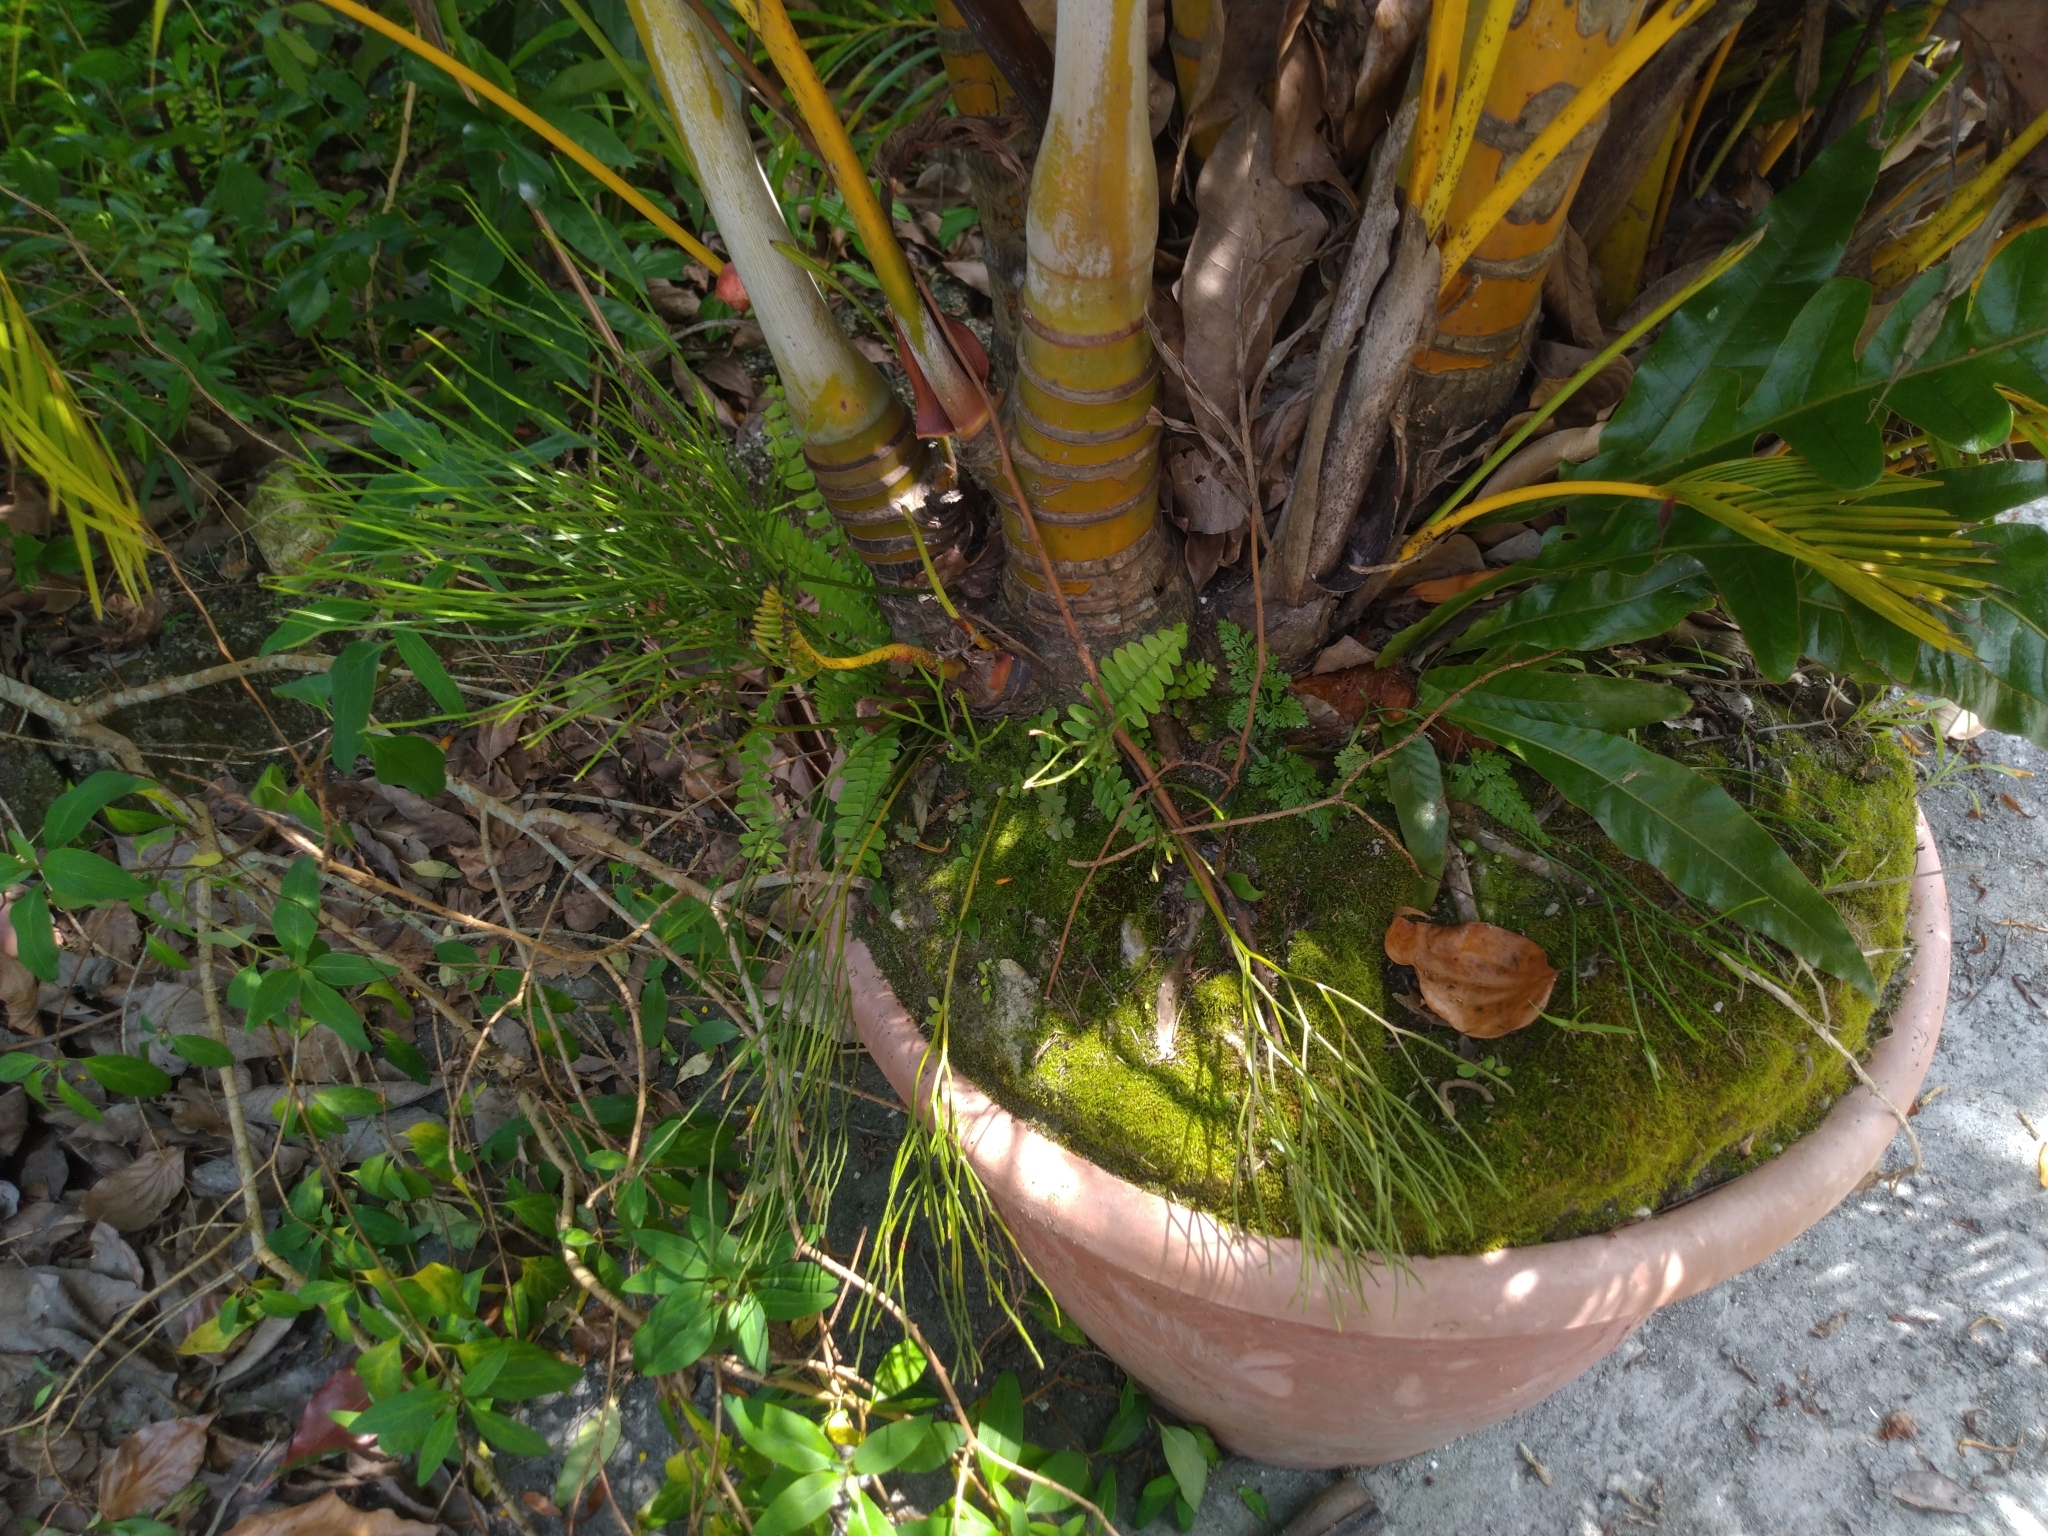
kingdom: Plantae
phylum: Tracheophyta
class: Polypodiopsida
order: Psilotales
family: Psilotaceae
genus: Psilotum
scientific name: Psilotum nudum
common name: Skeleton fork fern
